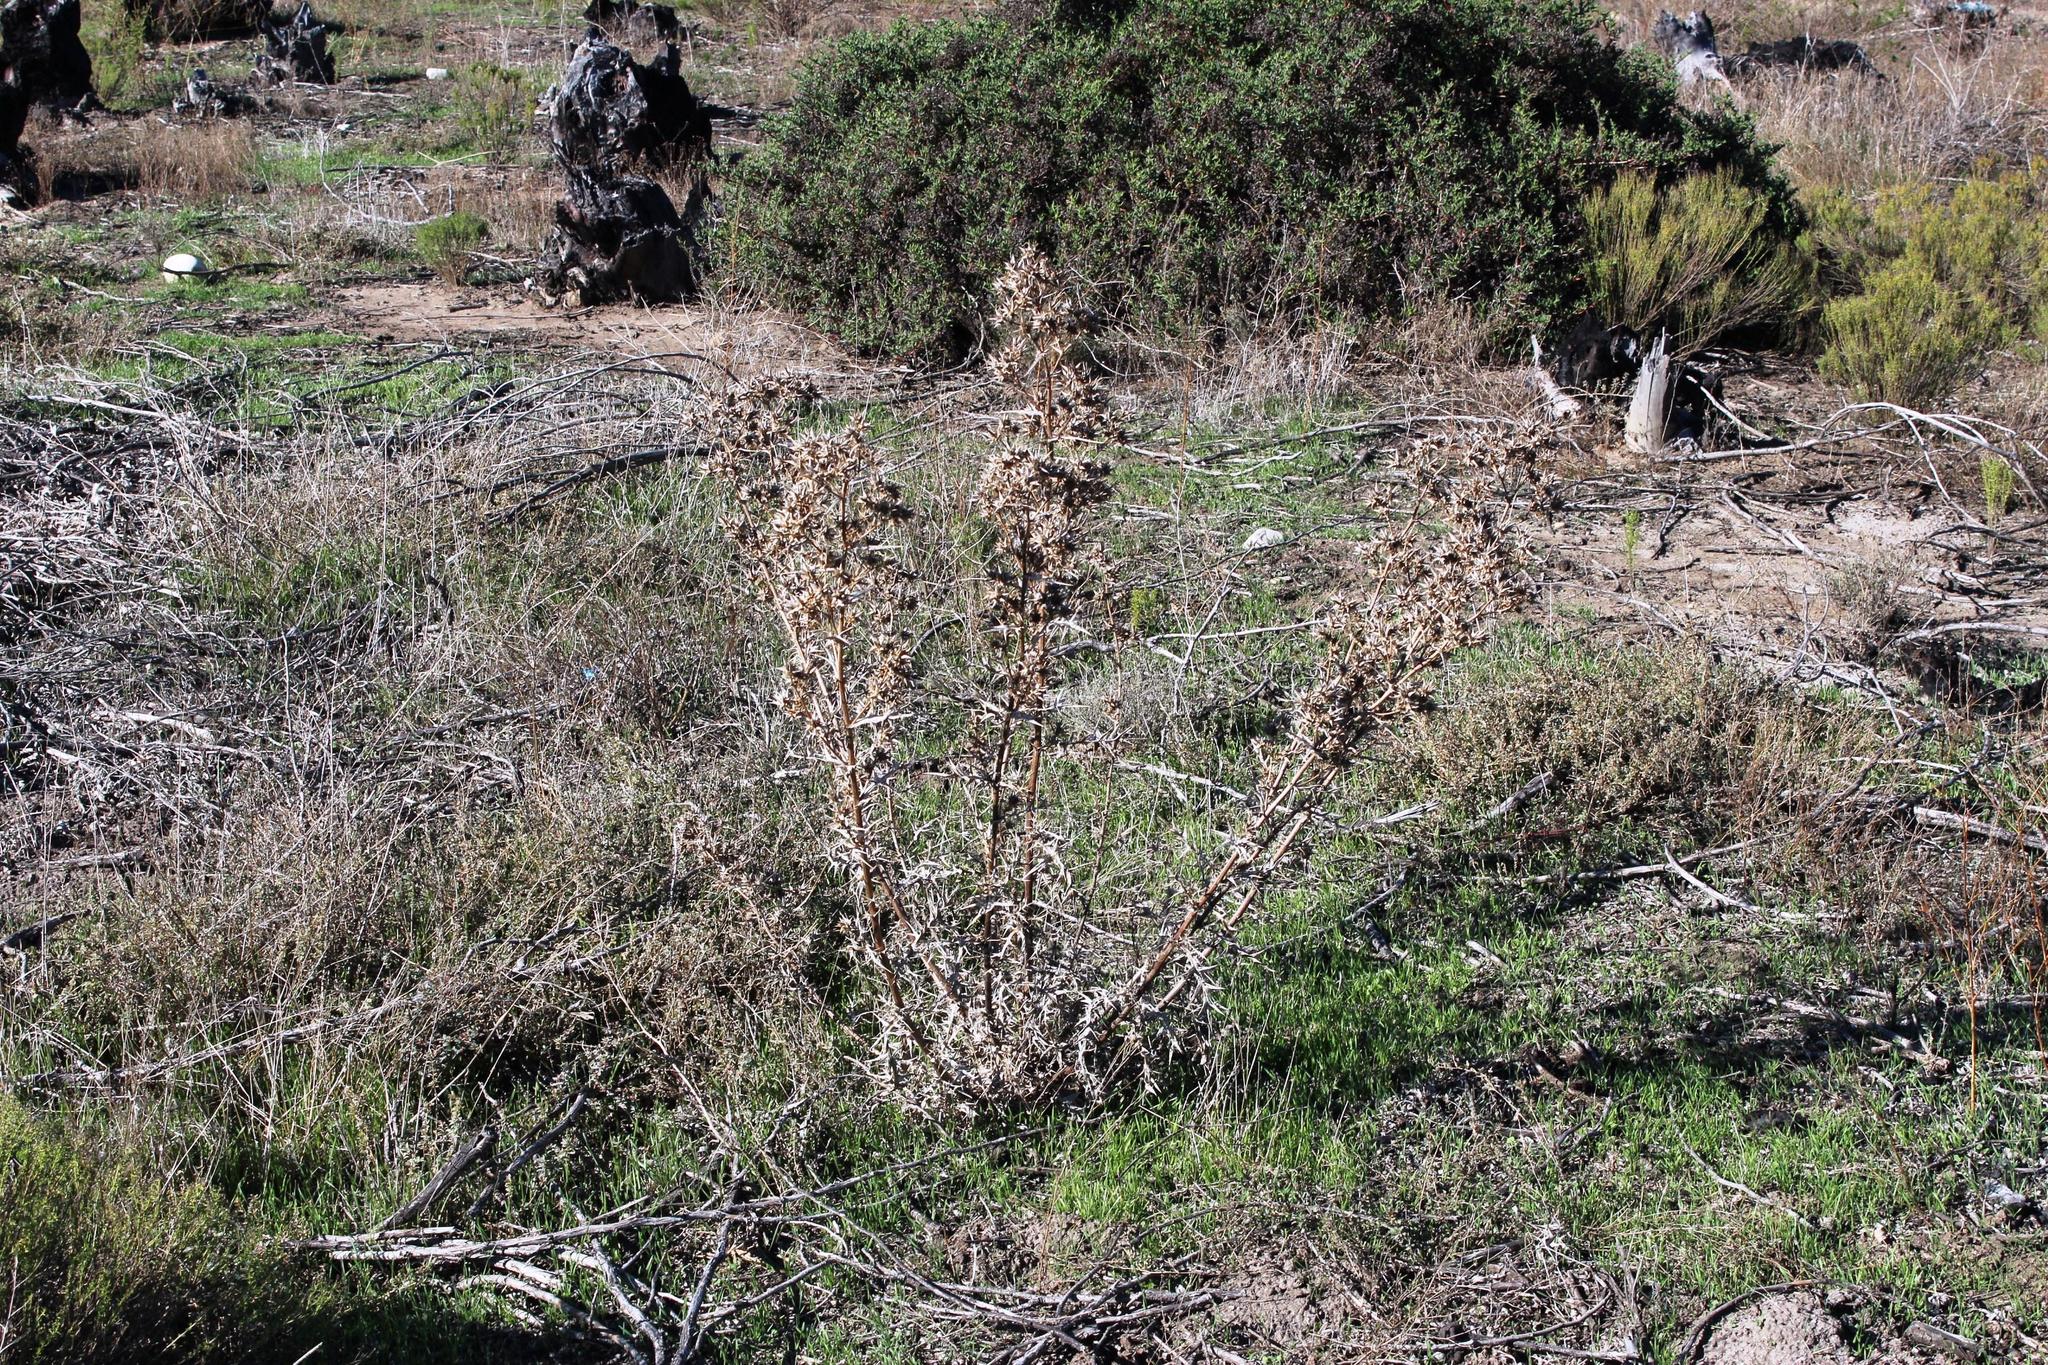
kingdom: Plantae
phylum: Tracheophyta
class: Magnoliopsida
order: Asterales
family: Asteraceae
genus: Berkheya
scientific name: Berkheya rigida
